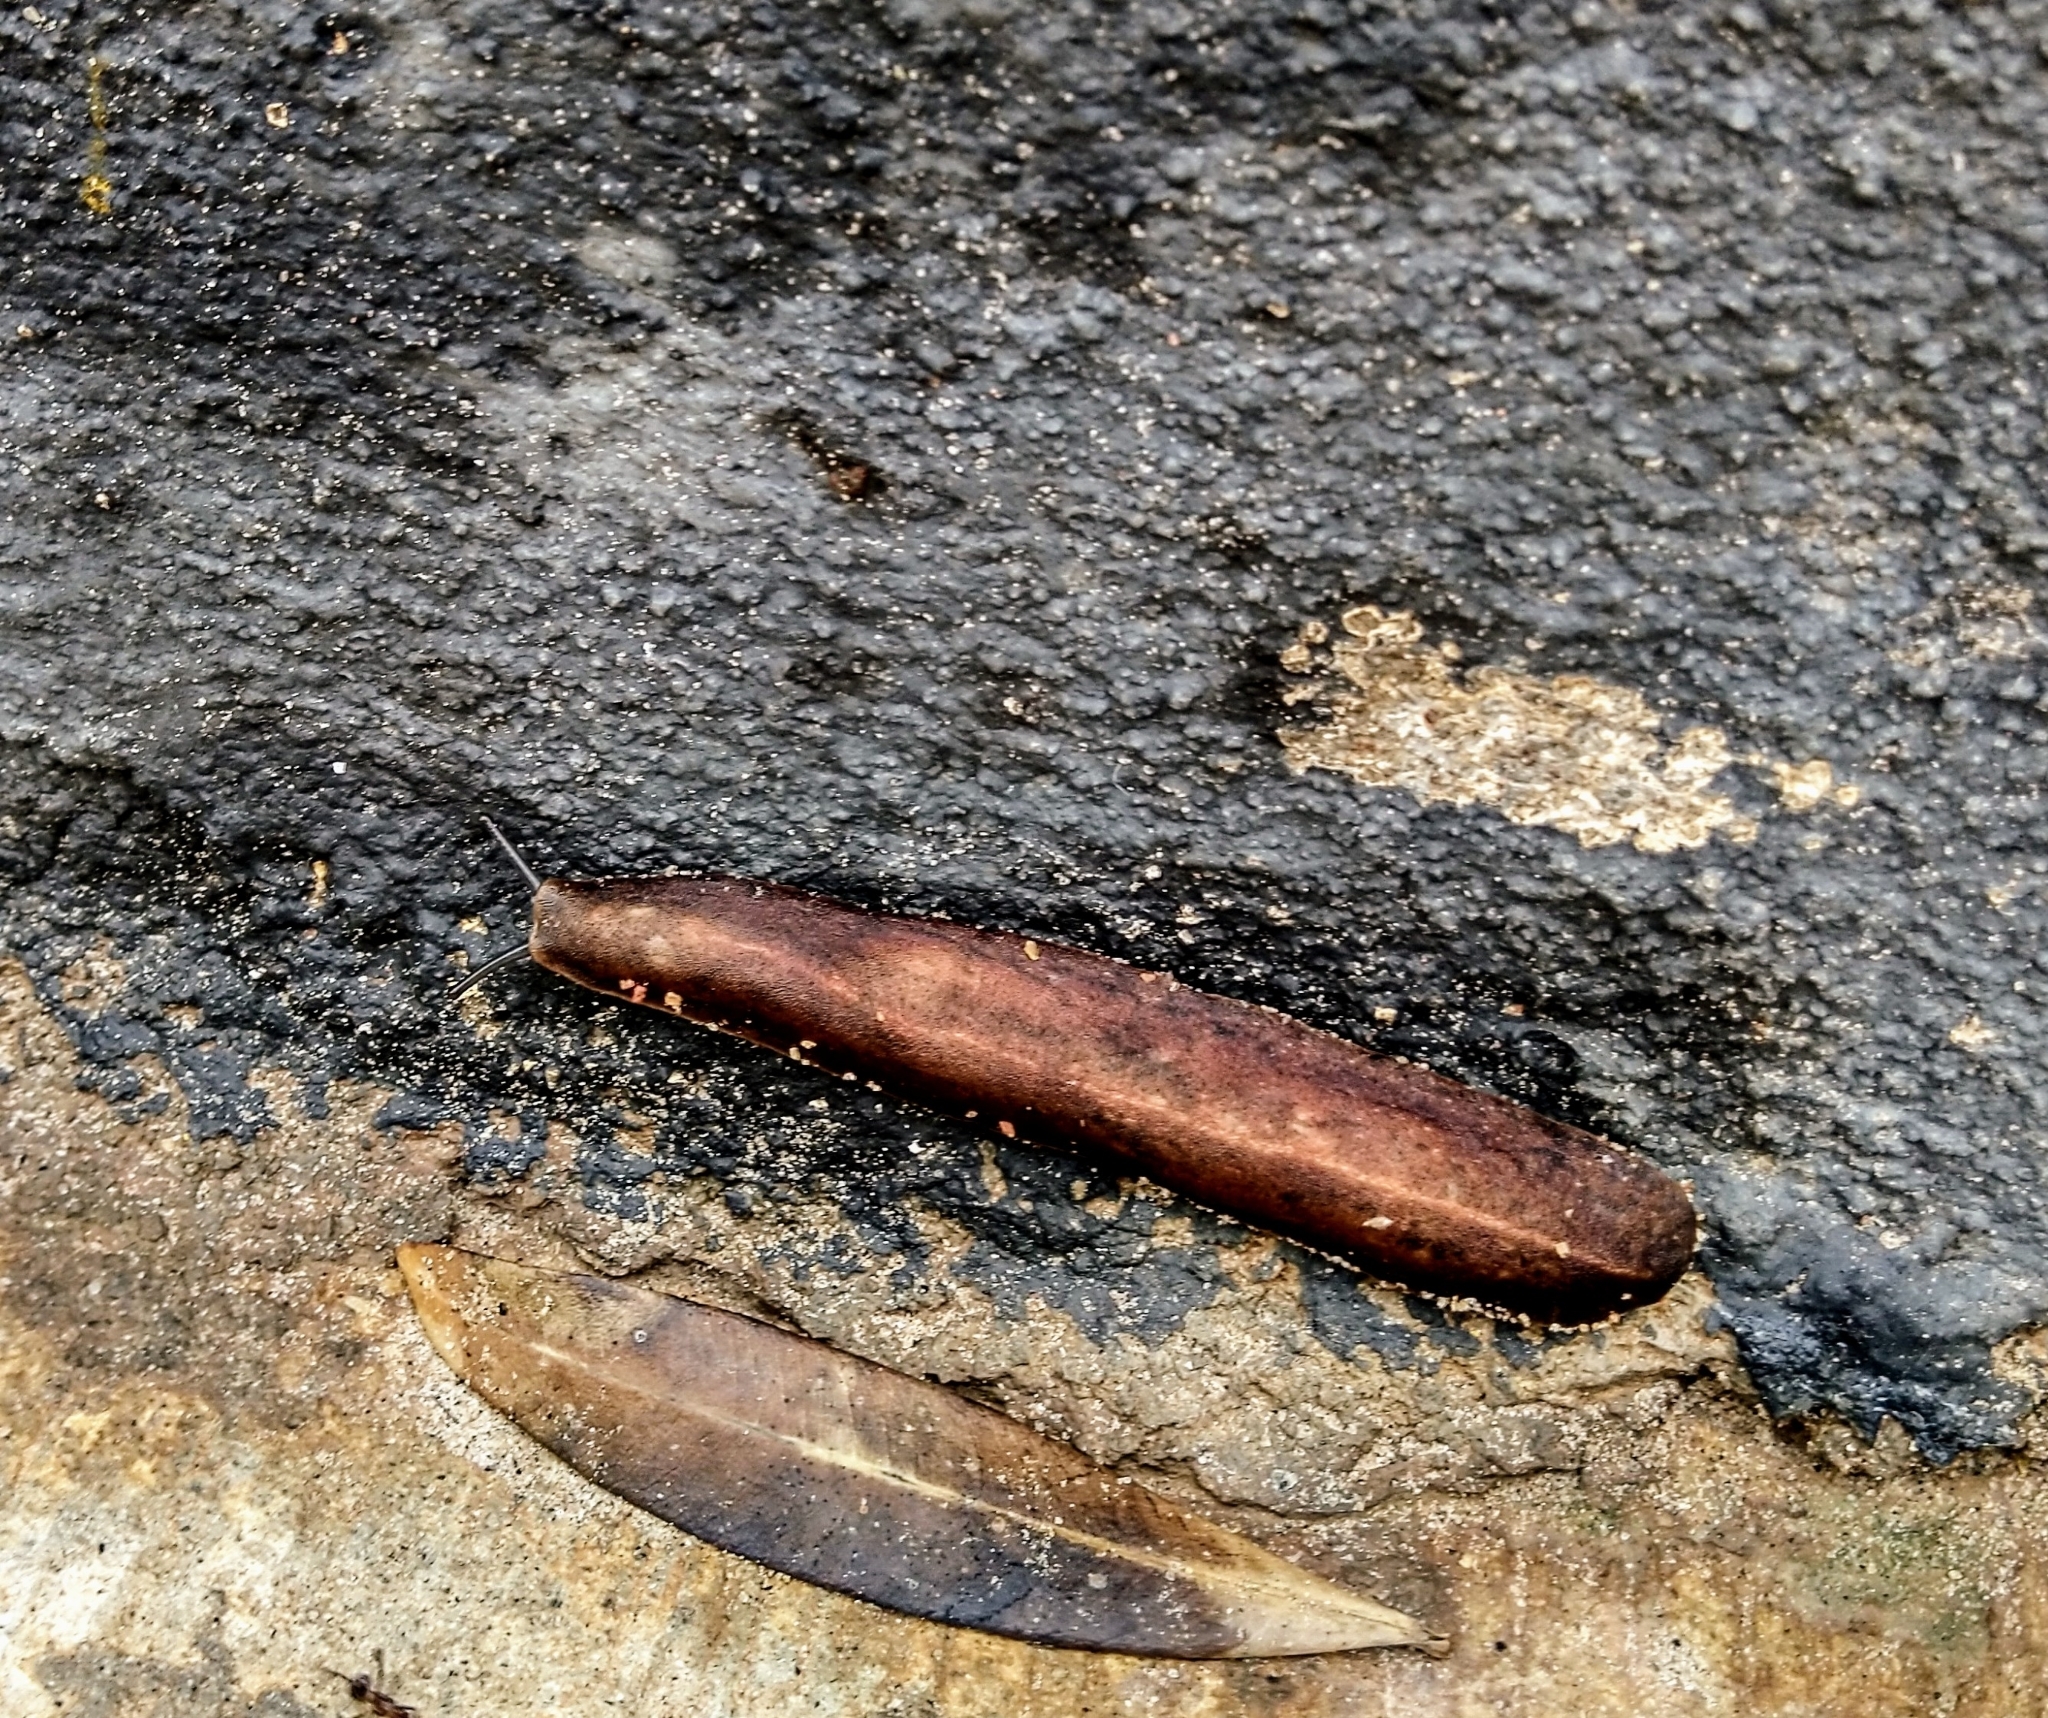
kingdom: Animalia
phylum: Mollusca
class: Gastropoda
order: Systellommatophora
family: Veronicellidae
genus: Laevicaulis
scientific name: Laevicaulis alte
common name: Tropical leatherleaf
